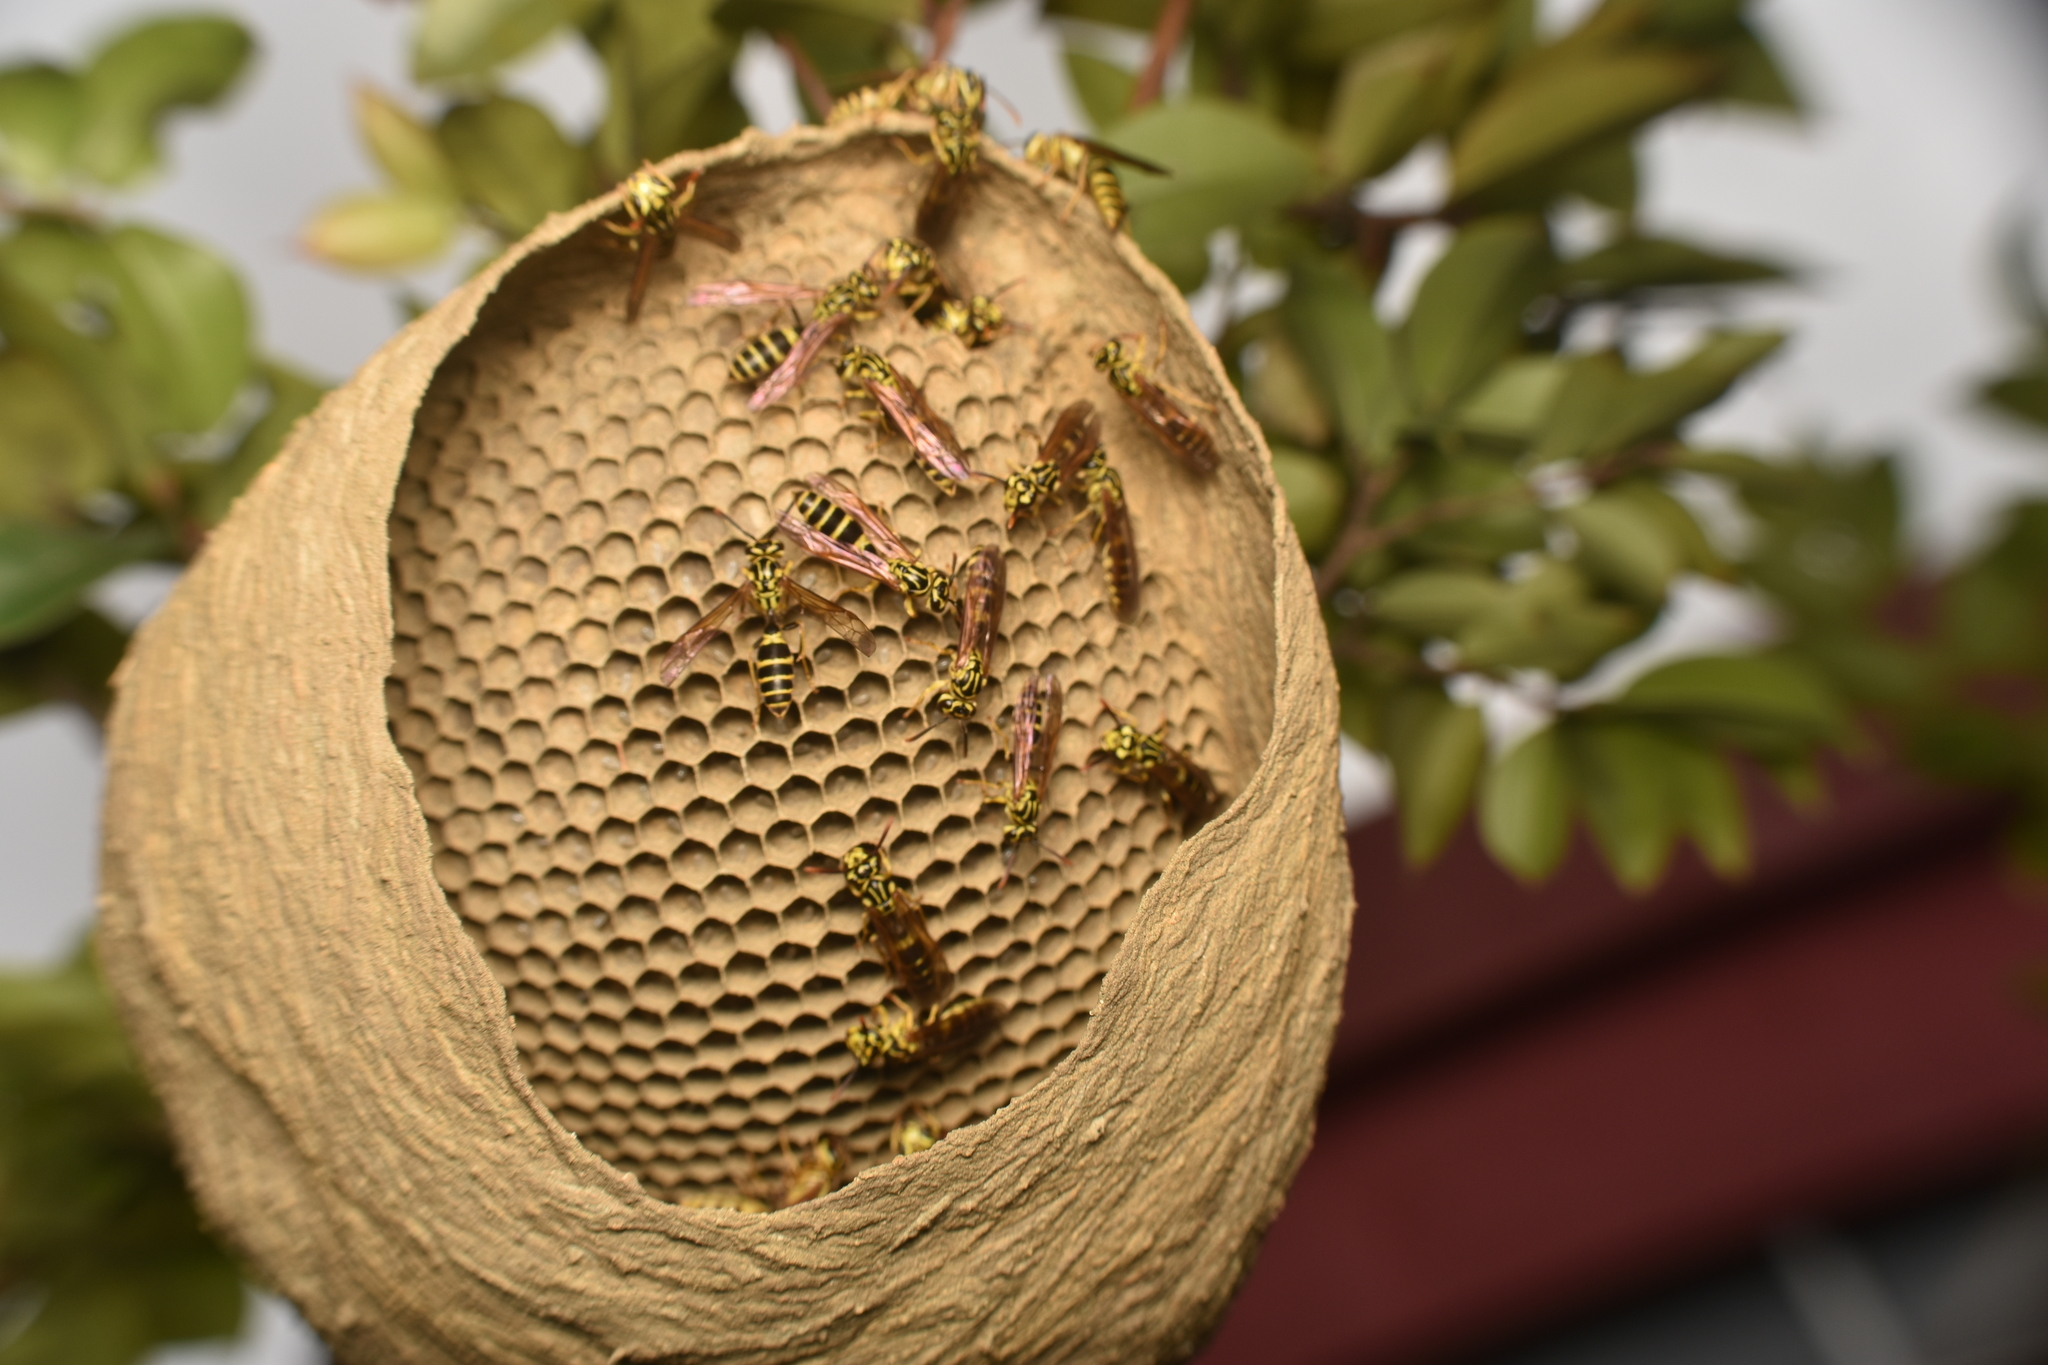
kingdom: Animalia
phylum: Arthropoda
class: Insecta
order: Hymenoptera
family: Eumenidae
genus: Polybia
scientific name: Polybia emaciata
